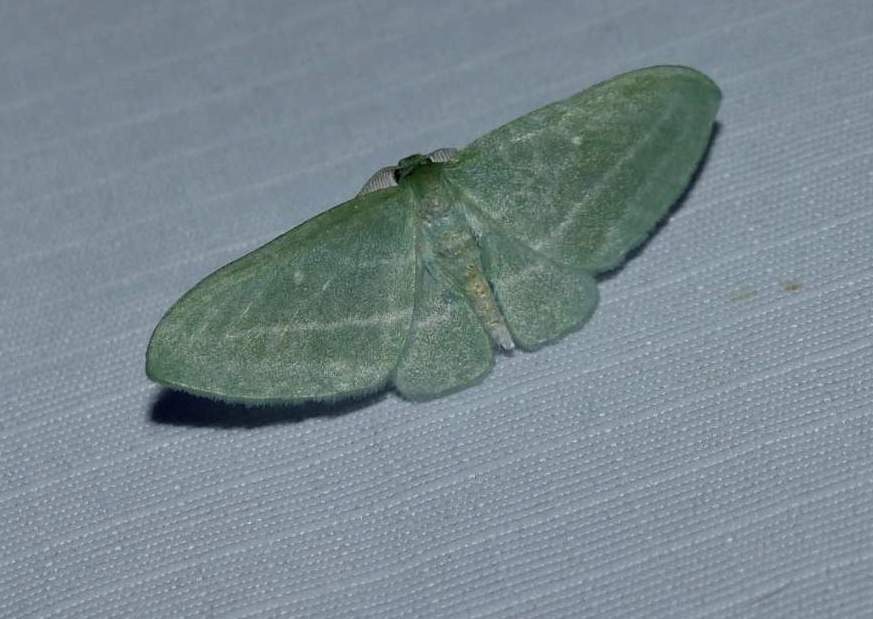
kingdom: Animalia
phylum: Arthropoda
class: Insecta
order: Lepidoptera
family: Geometridae
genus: Dyspteris
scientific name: Dyspteris abortivaria
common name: Bad-wing
